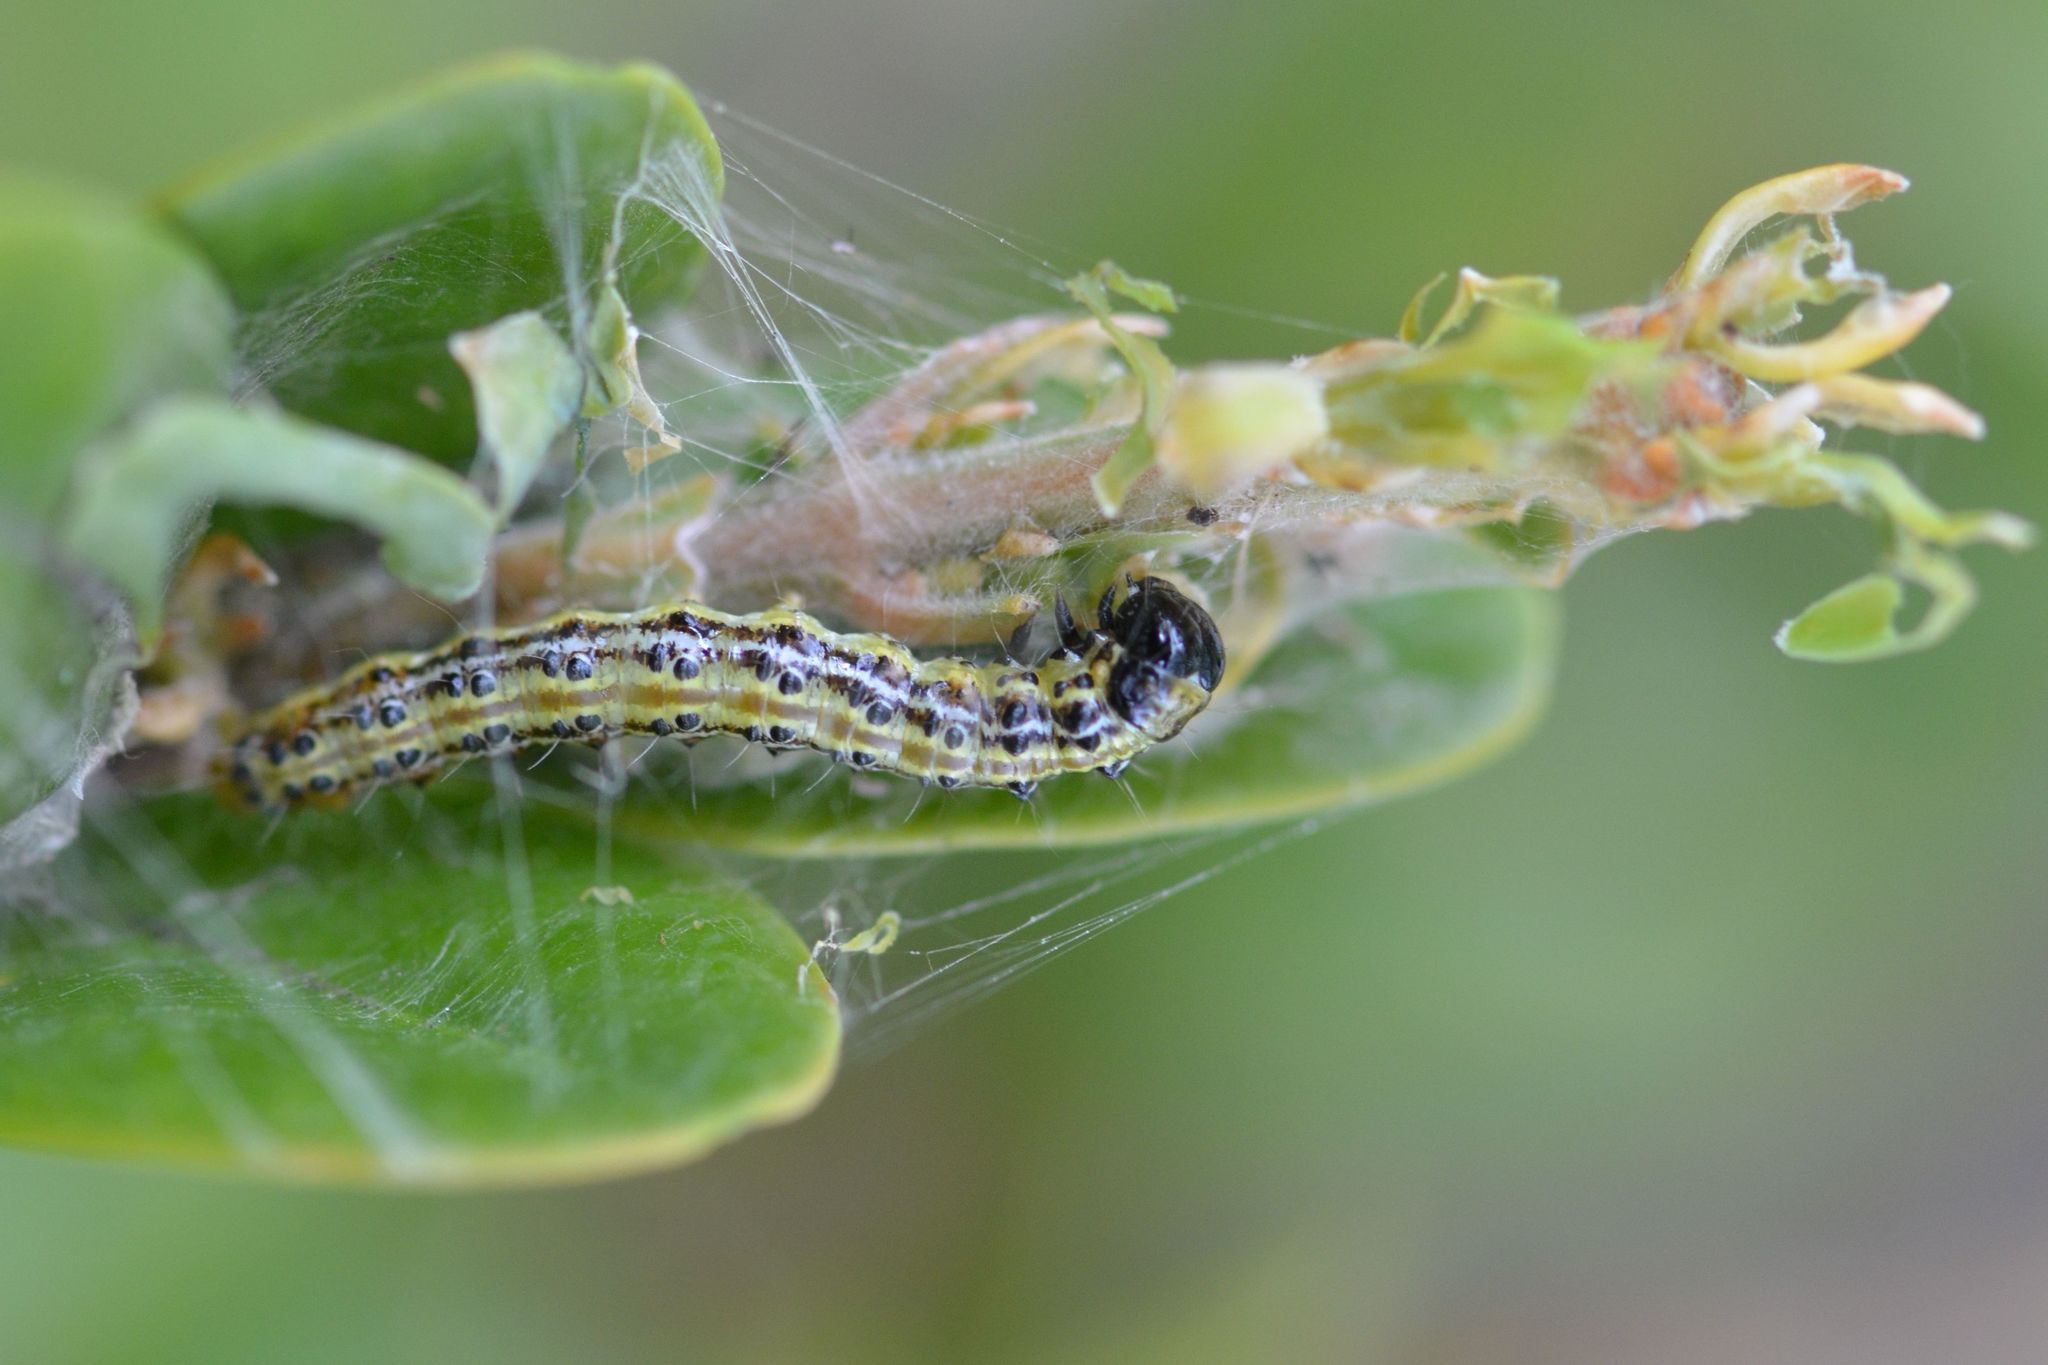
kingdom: Animalia
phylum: Arthropoda
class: Insecta
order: Lepidoptera
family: Crambidae
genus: Cydalima
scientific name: Cydalima perspectalis
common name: Box tree moth
